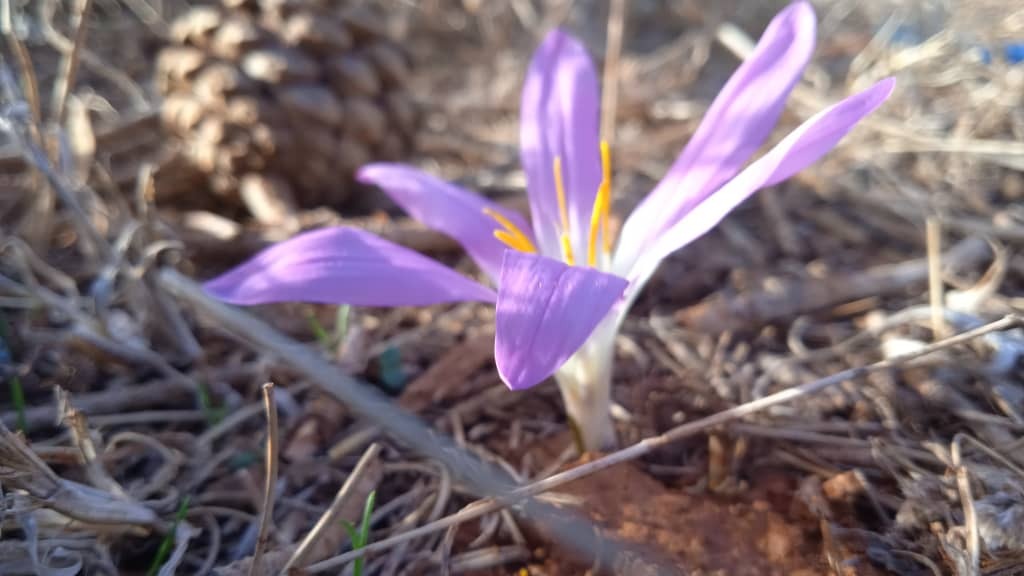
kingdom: Plantae
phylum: Tracheophyta
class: Liliopsida
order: Liliales
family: Colchicaceae
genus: Colchicum
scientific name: Colchicum filifolium
